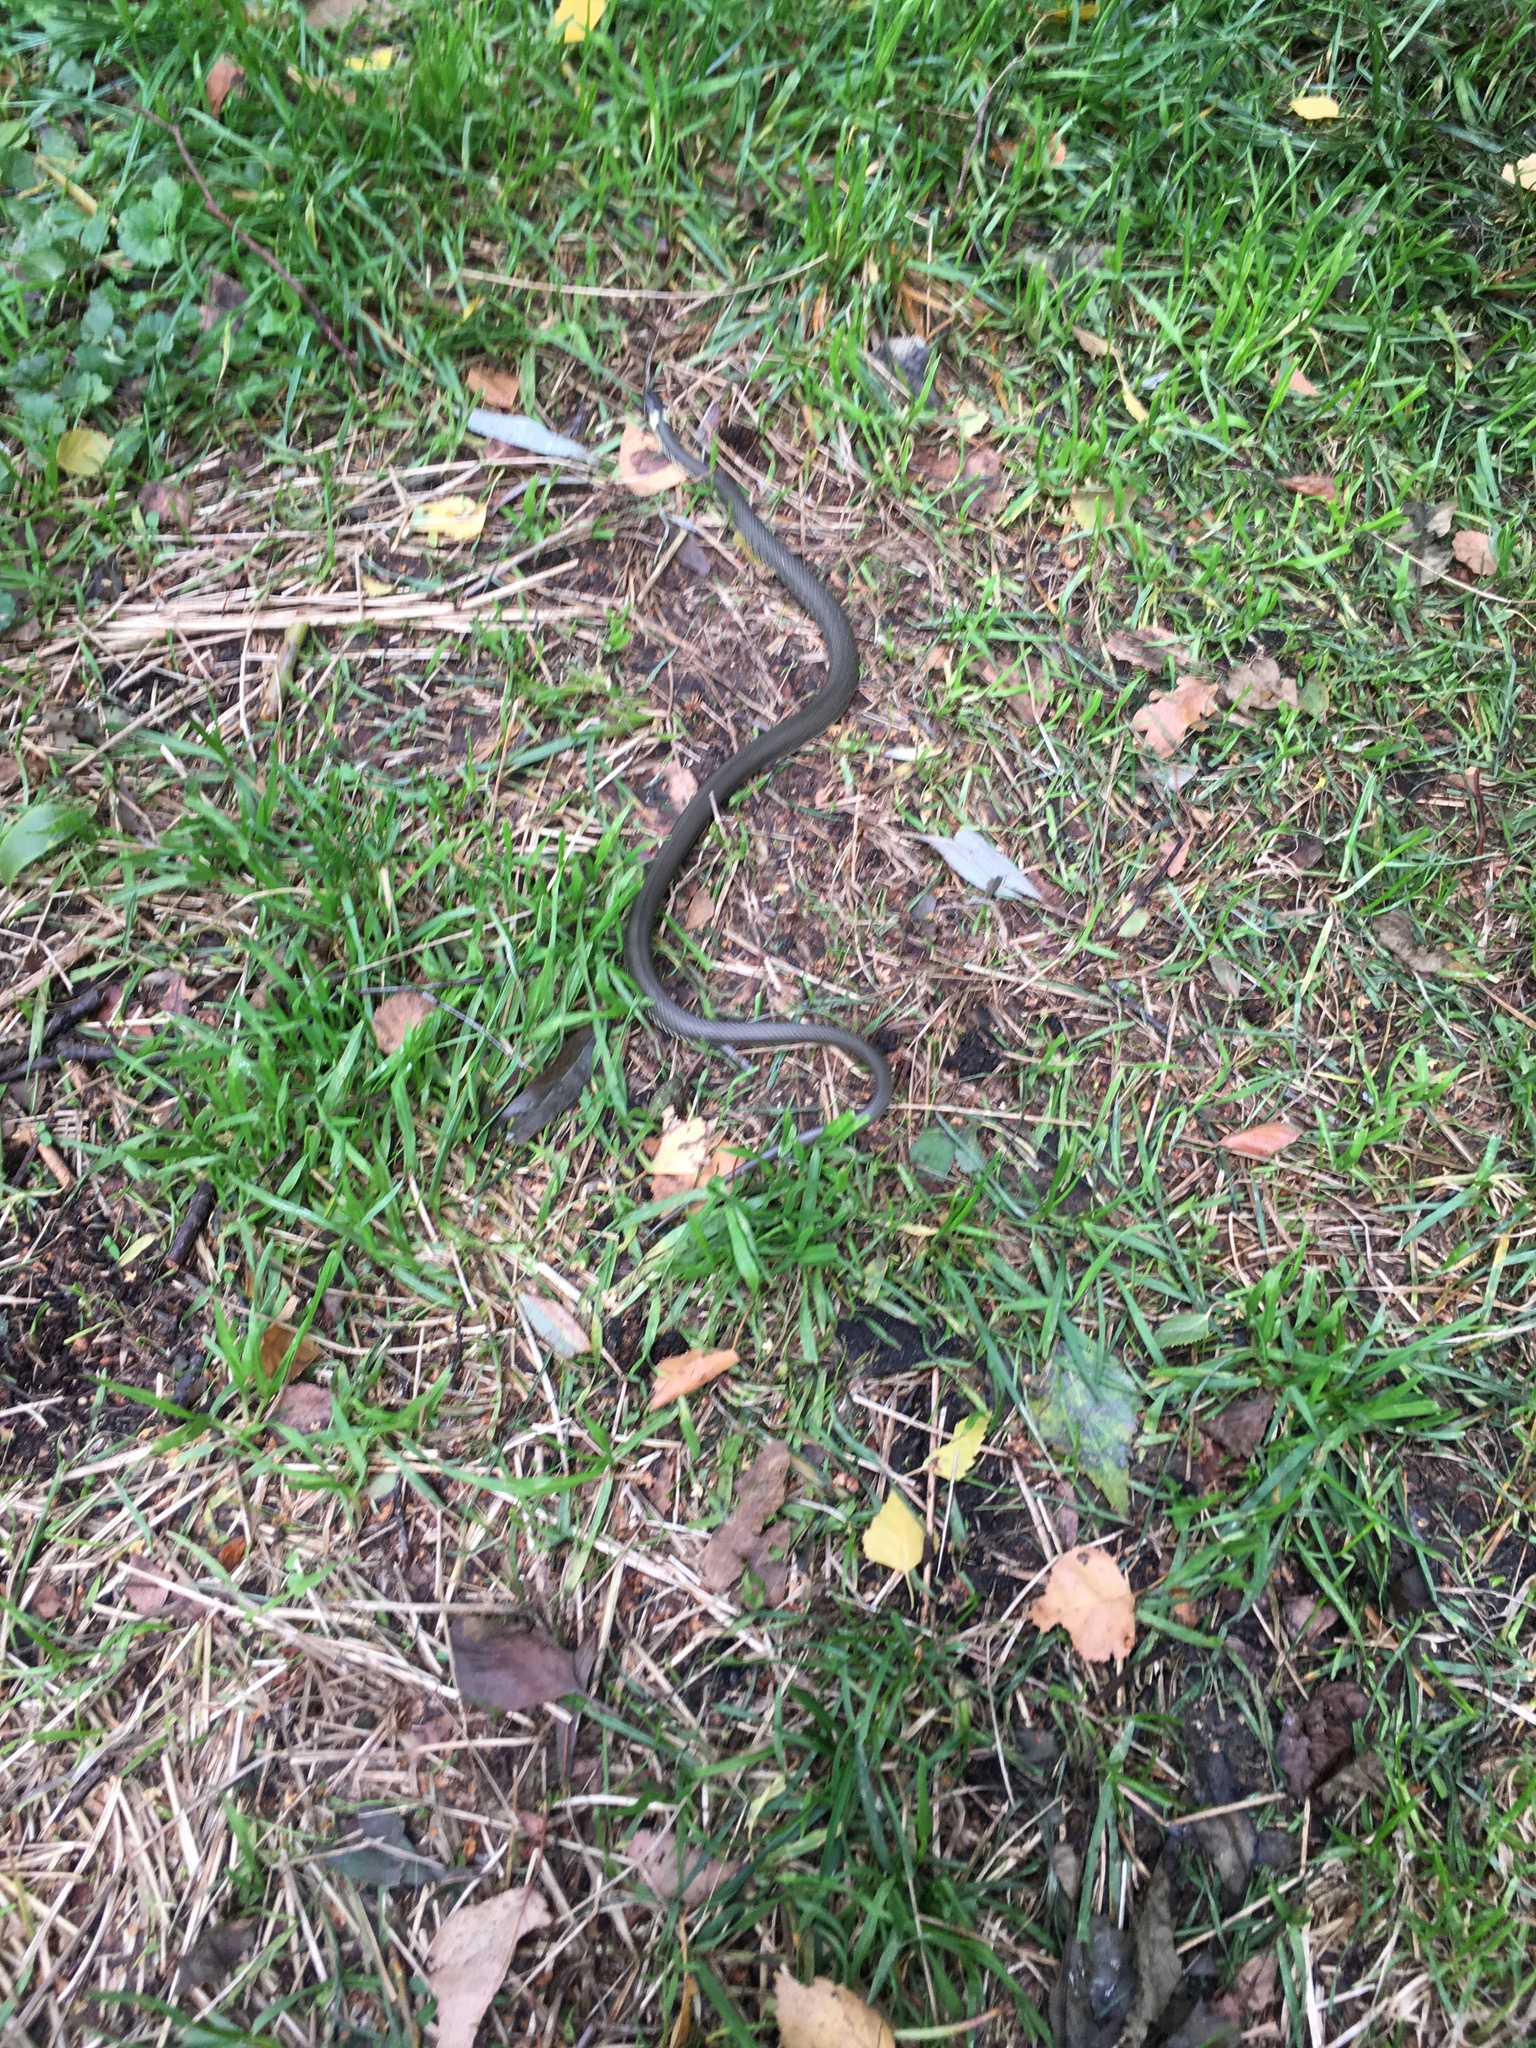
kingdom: Animalia
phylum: Chordata
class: Squamata
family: Colubridae
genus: Natrix
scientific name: Natrix natrix
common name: Grass snake
